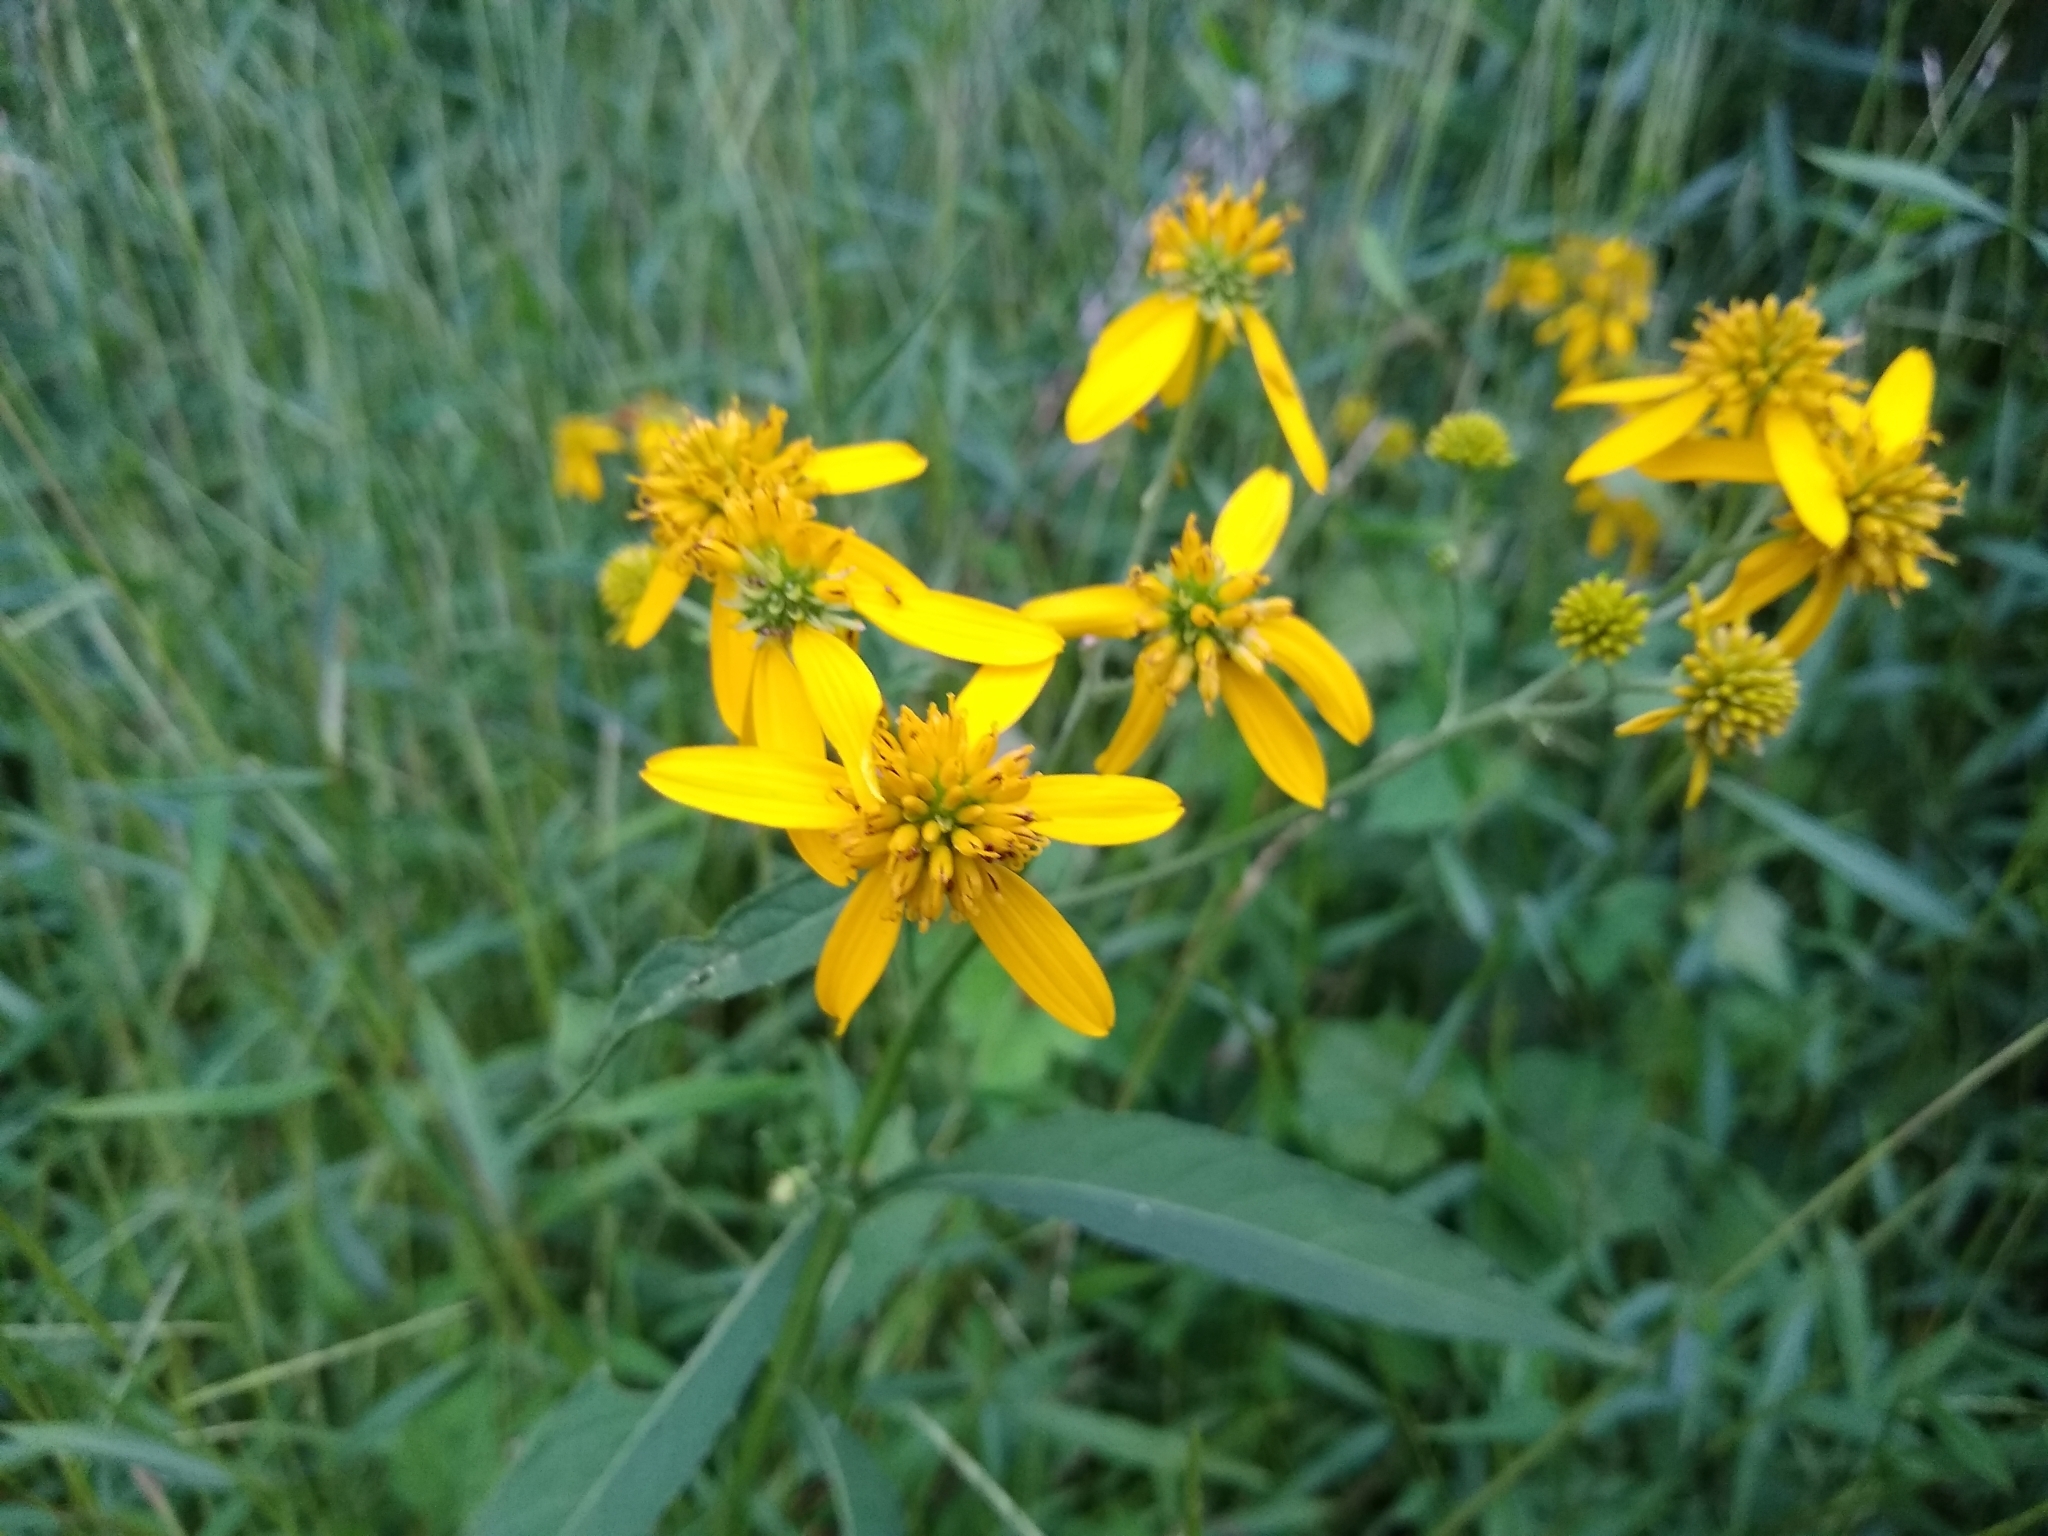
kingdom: Plantae
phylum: Tracheophyta
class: Magnoliopsida
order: Asterales
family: Asteraceae
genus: Verbesina
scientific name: Verbesina alternifolia
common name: Wingstem
